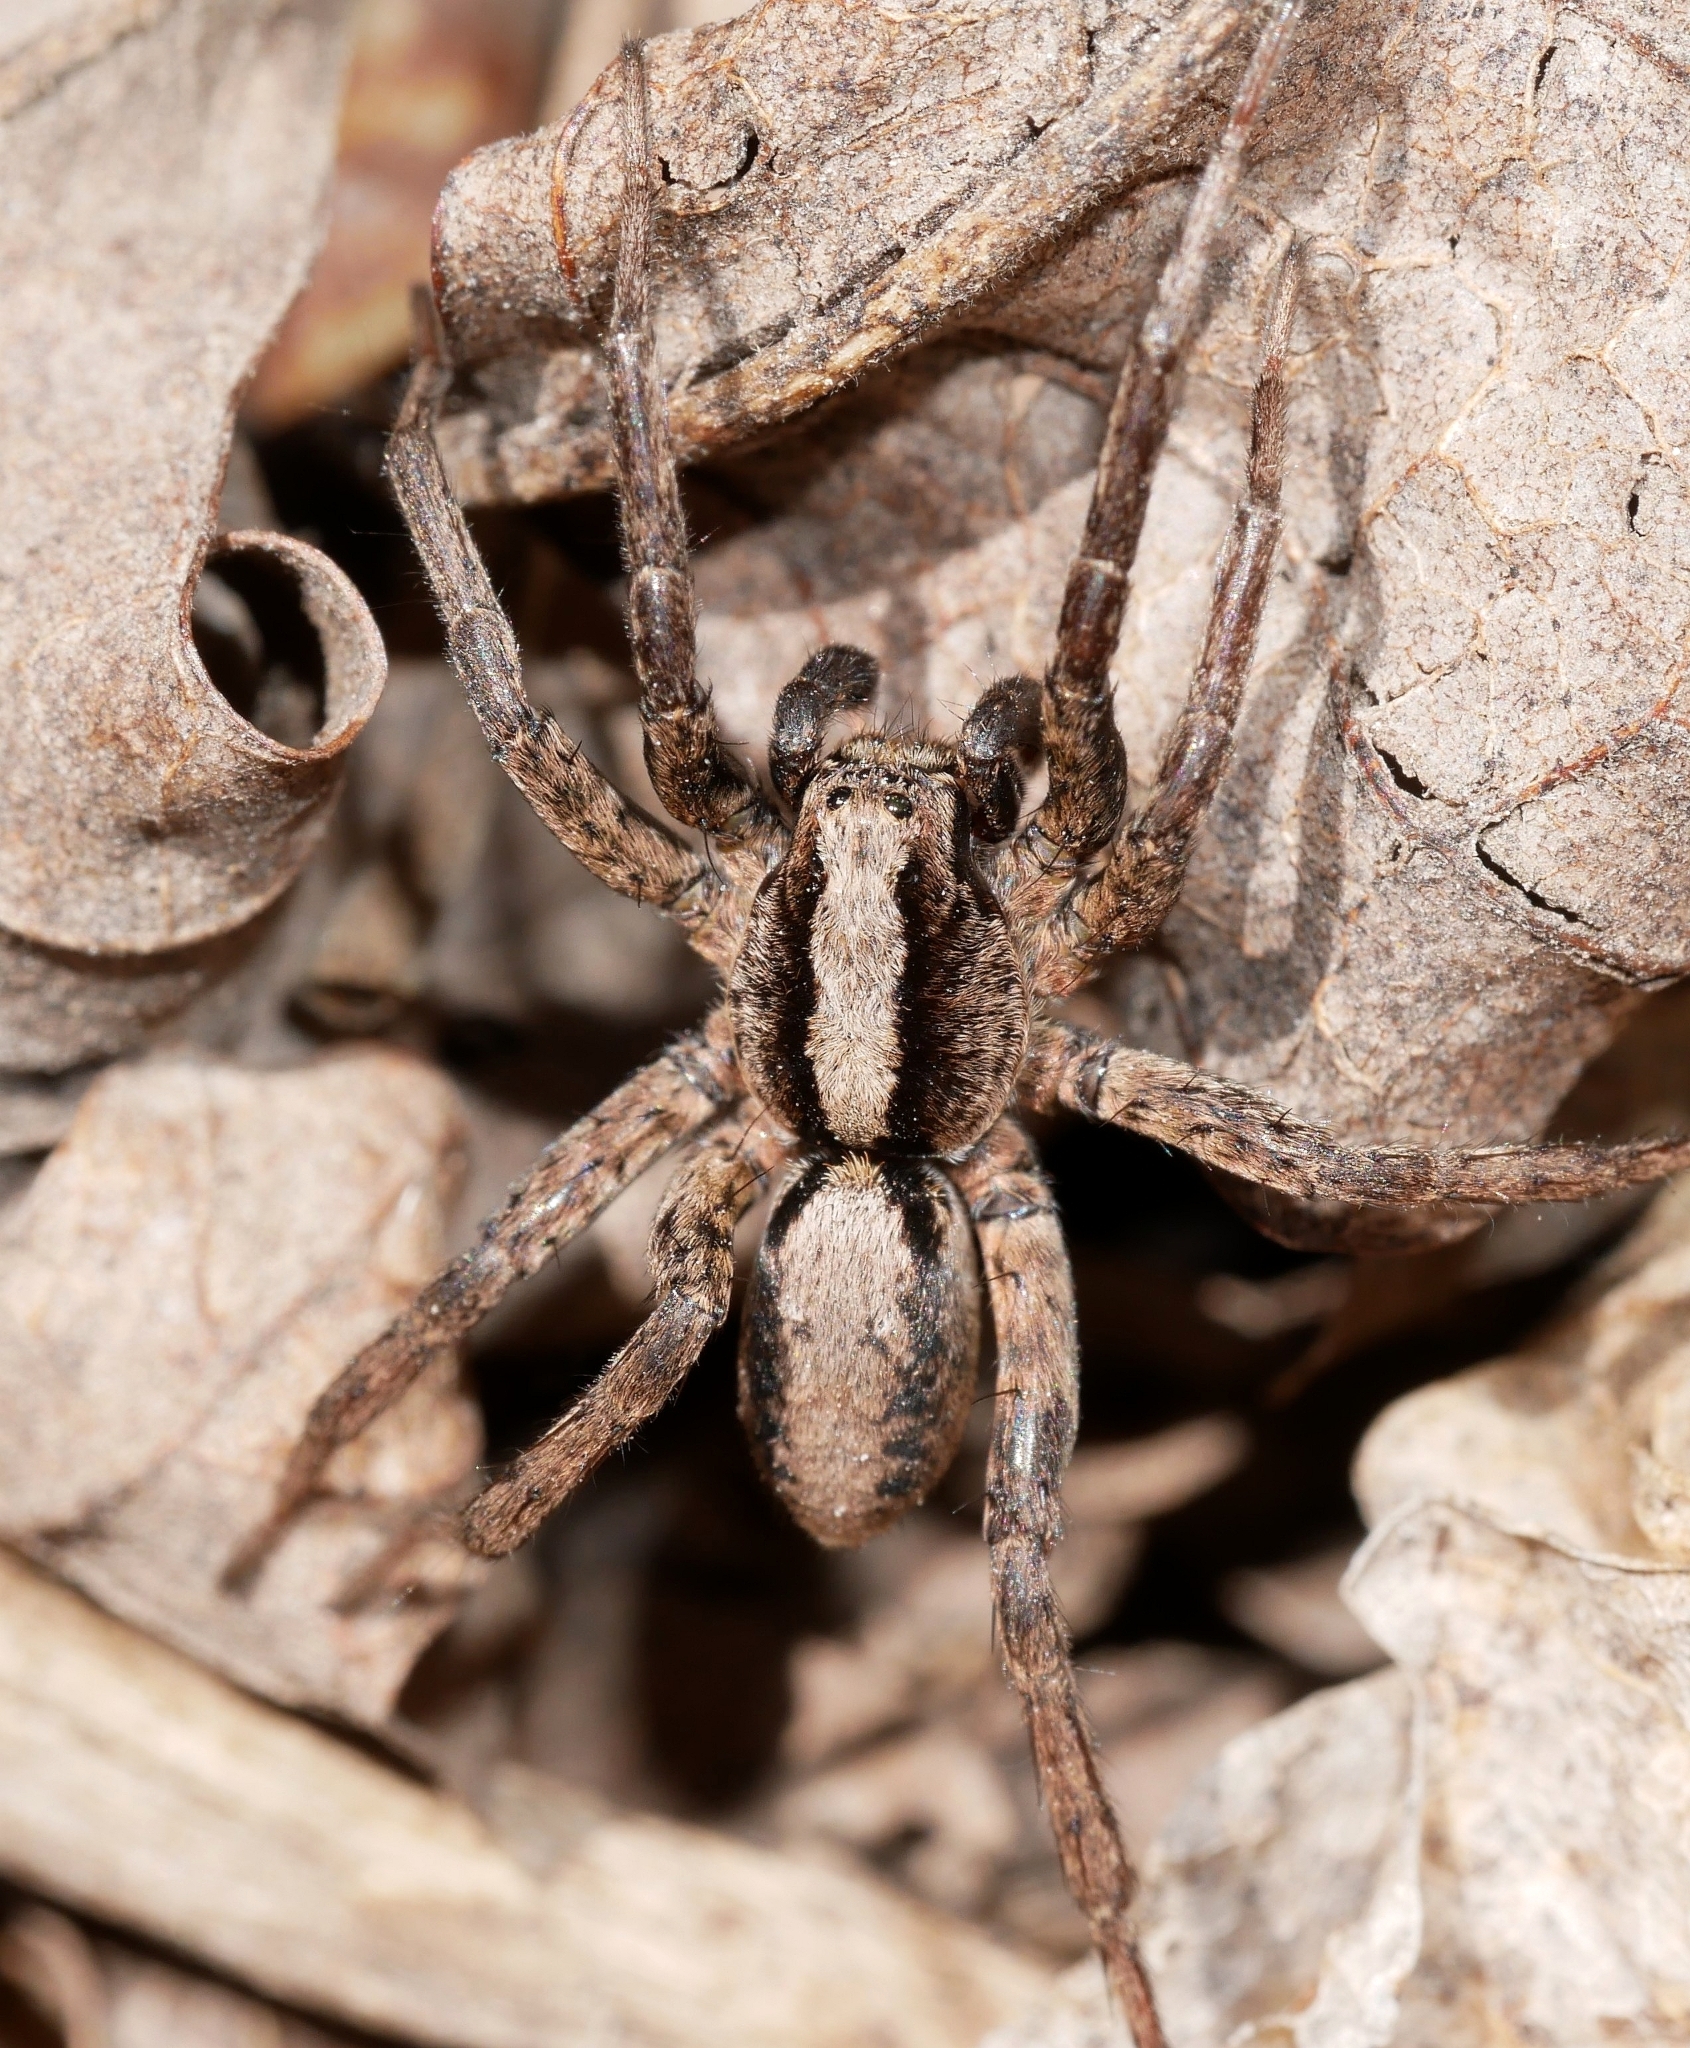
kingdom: Animalia
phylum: Arthropoda
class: Arachnida
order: Araneae
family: Lycosidae
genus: Alopecosa
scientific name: Alopecosa kochi
